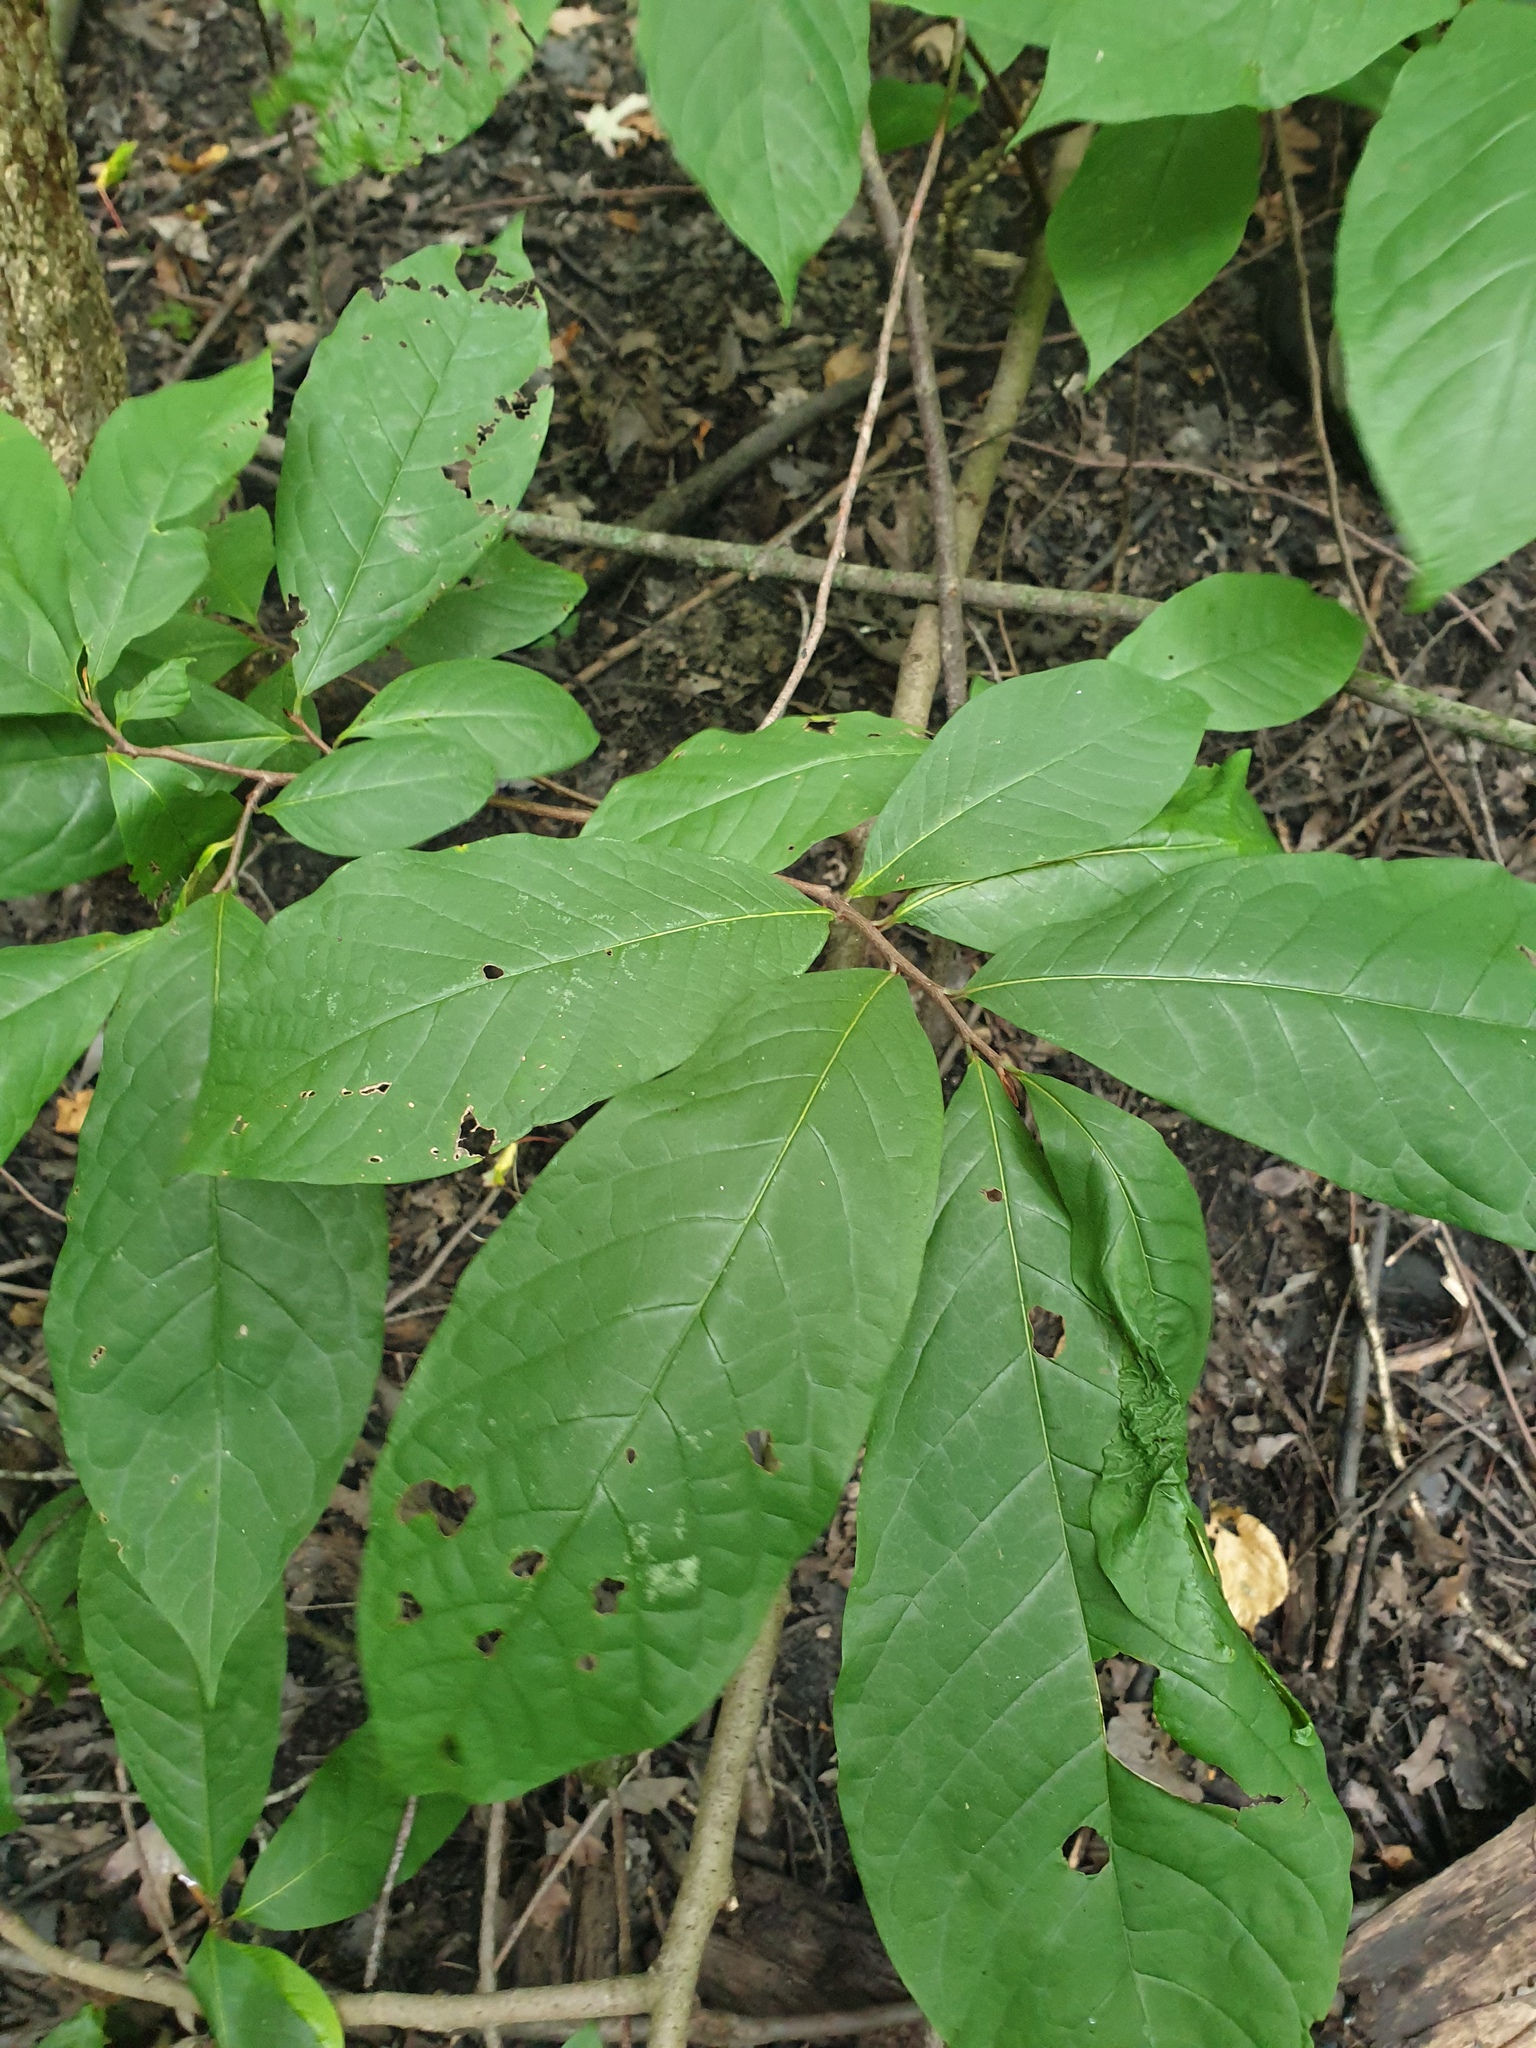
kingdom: Plantae
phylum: Tracheophyta
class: Magnoliopsida
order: Magnoliales
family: Annonaceae
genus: Asimina
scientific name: Asimina triloba
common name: Dog-banana
